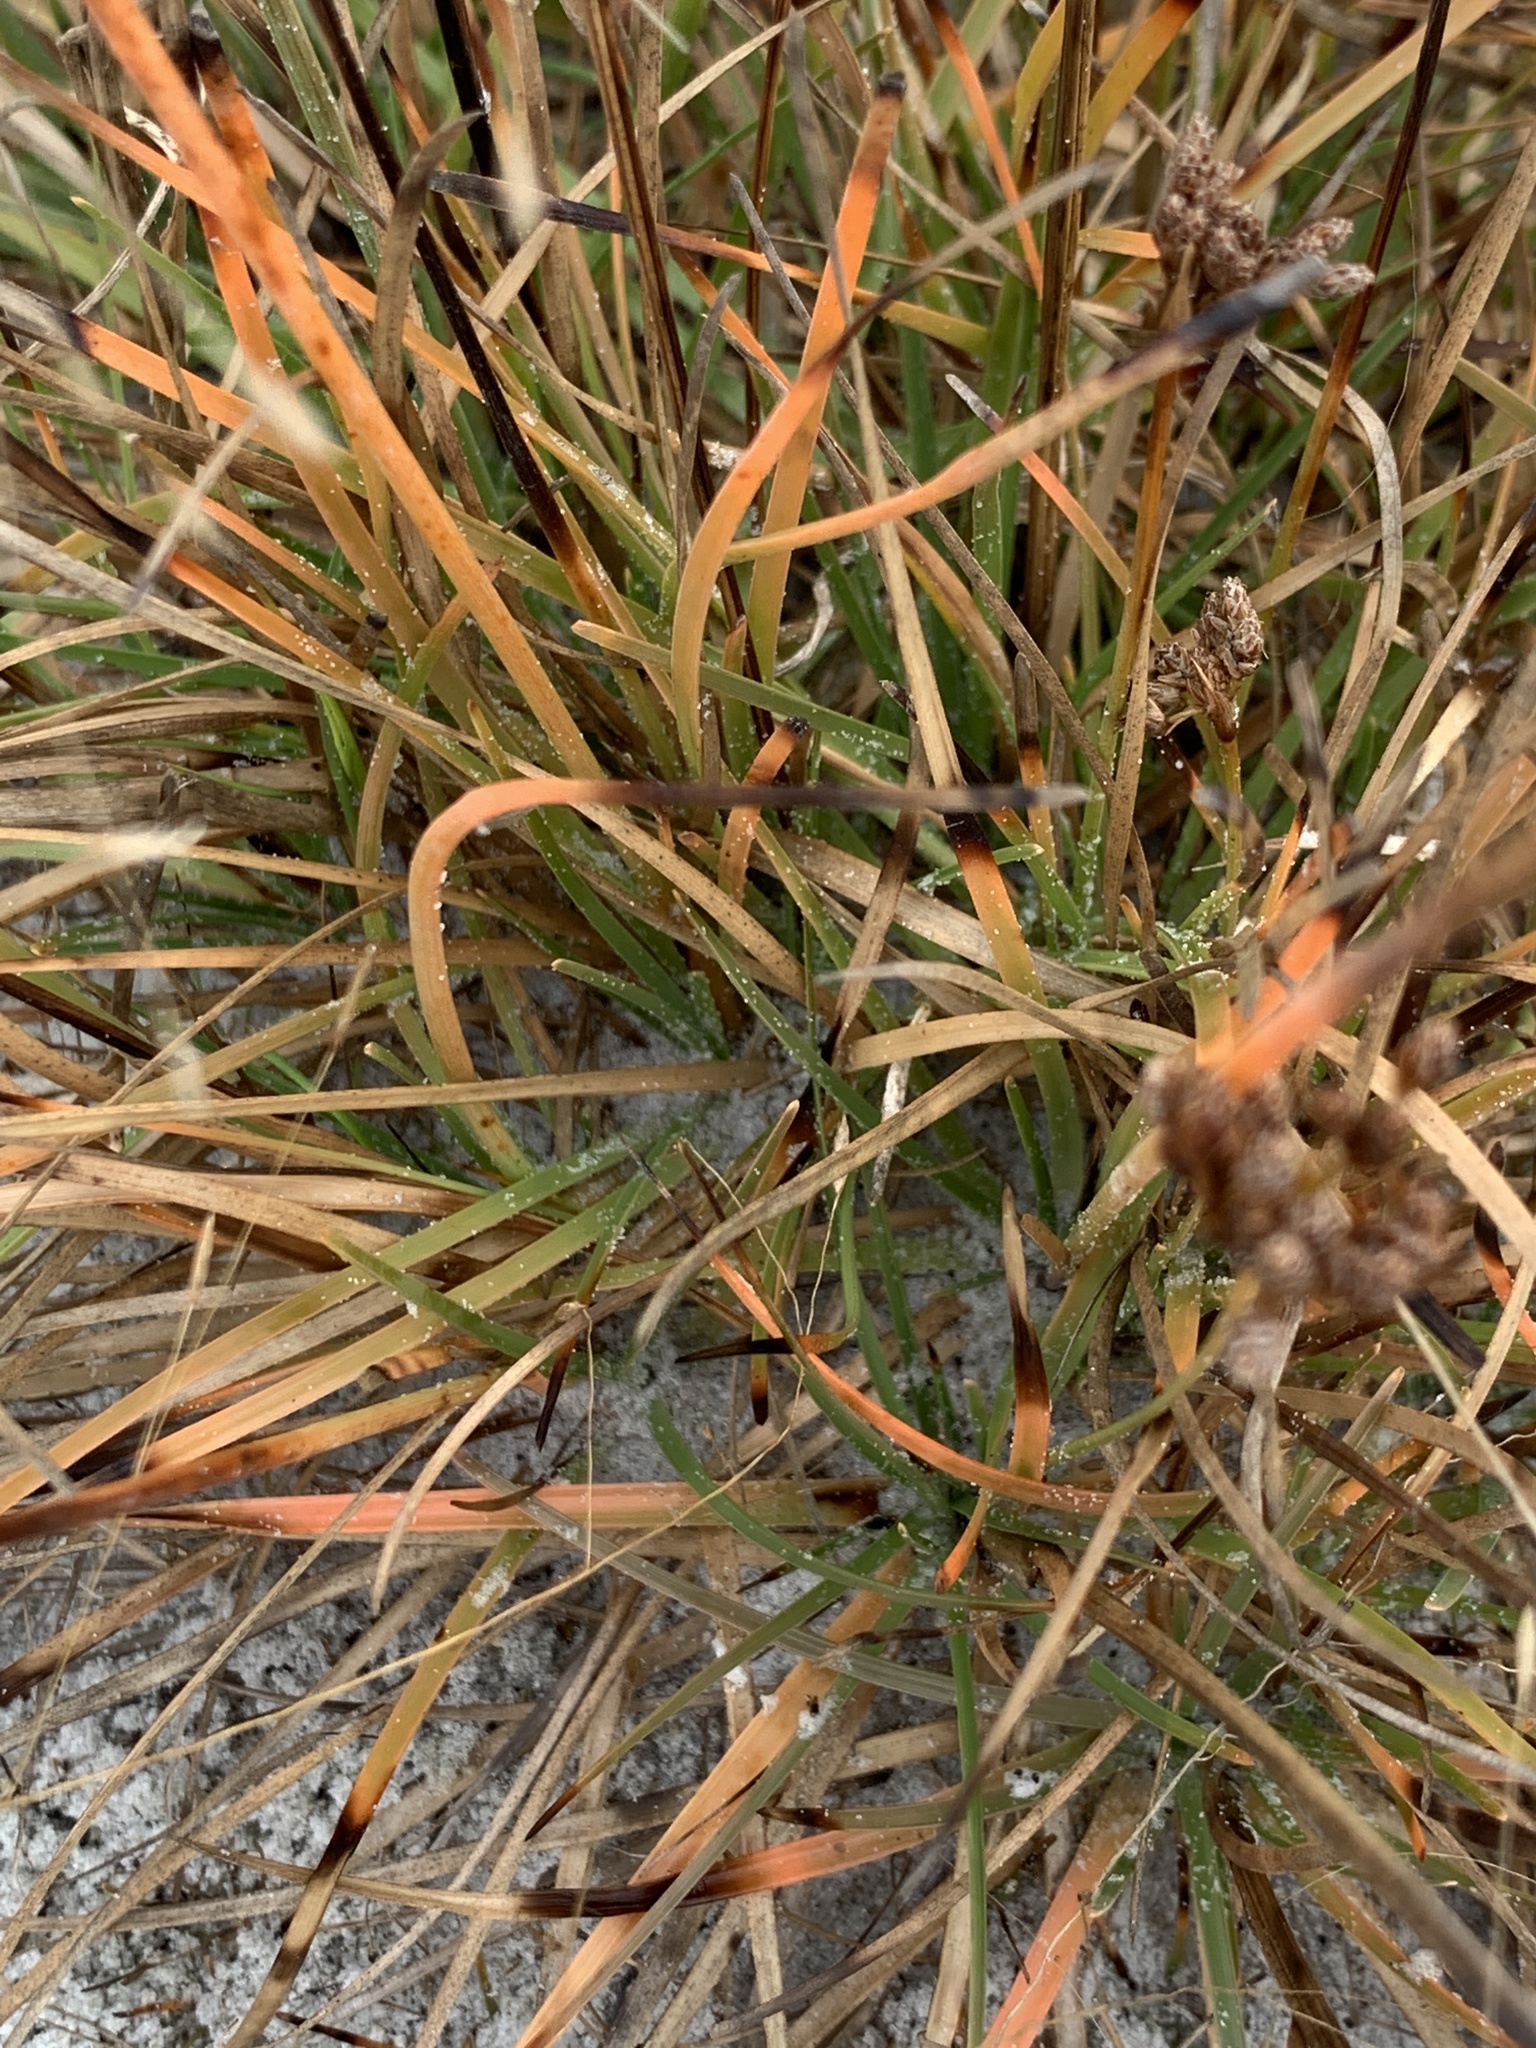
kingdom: Plantae
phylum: Tracheophyta
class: Liliopsida
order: Poales
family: Cyperaceae
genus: Fimbristylis
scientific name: Fimbristylis cymosa
